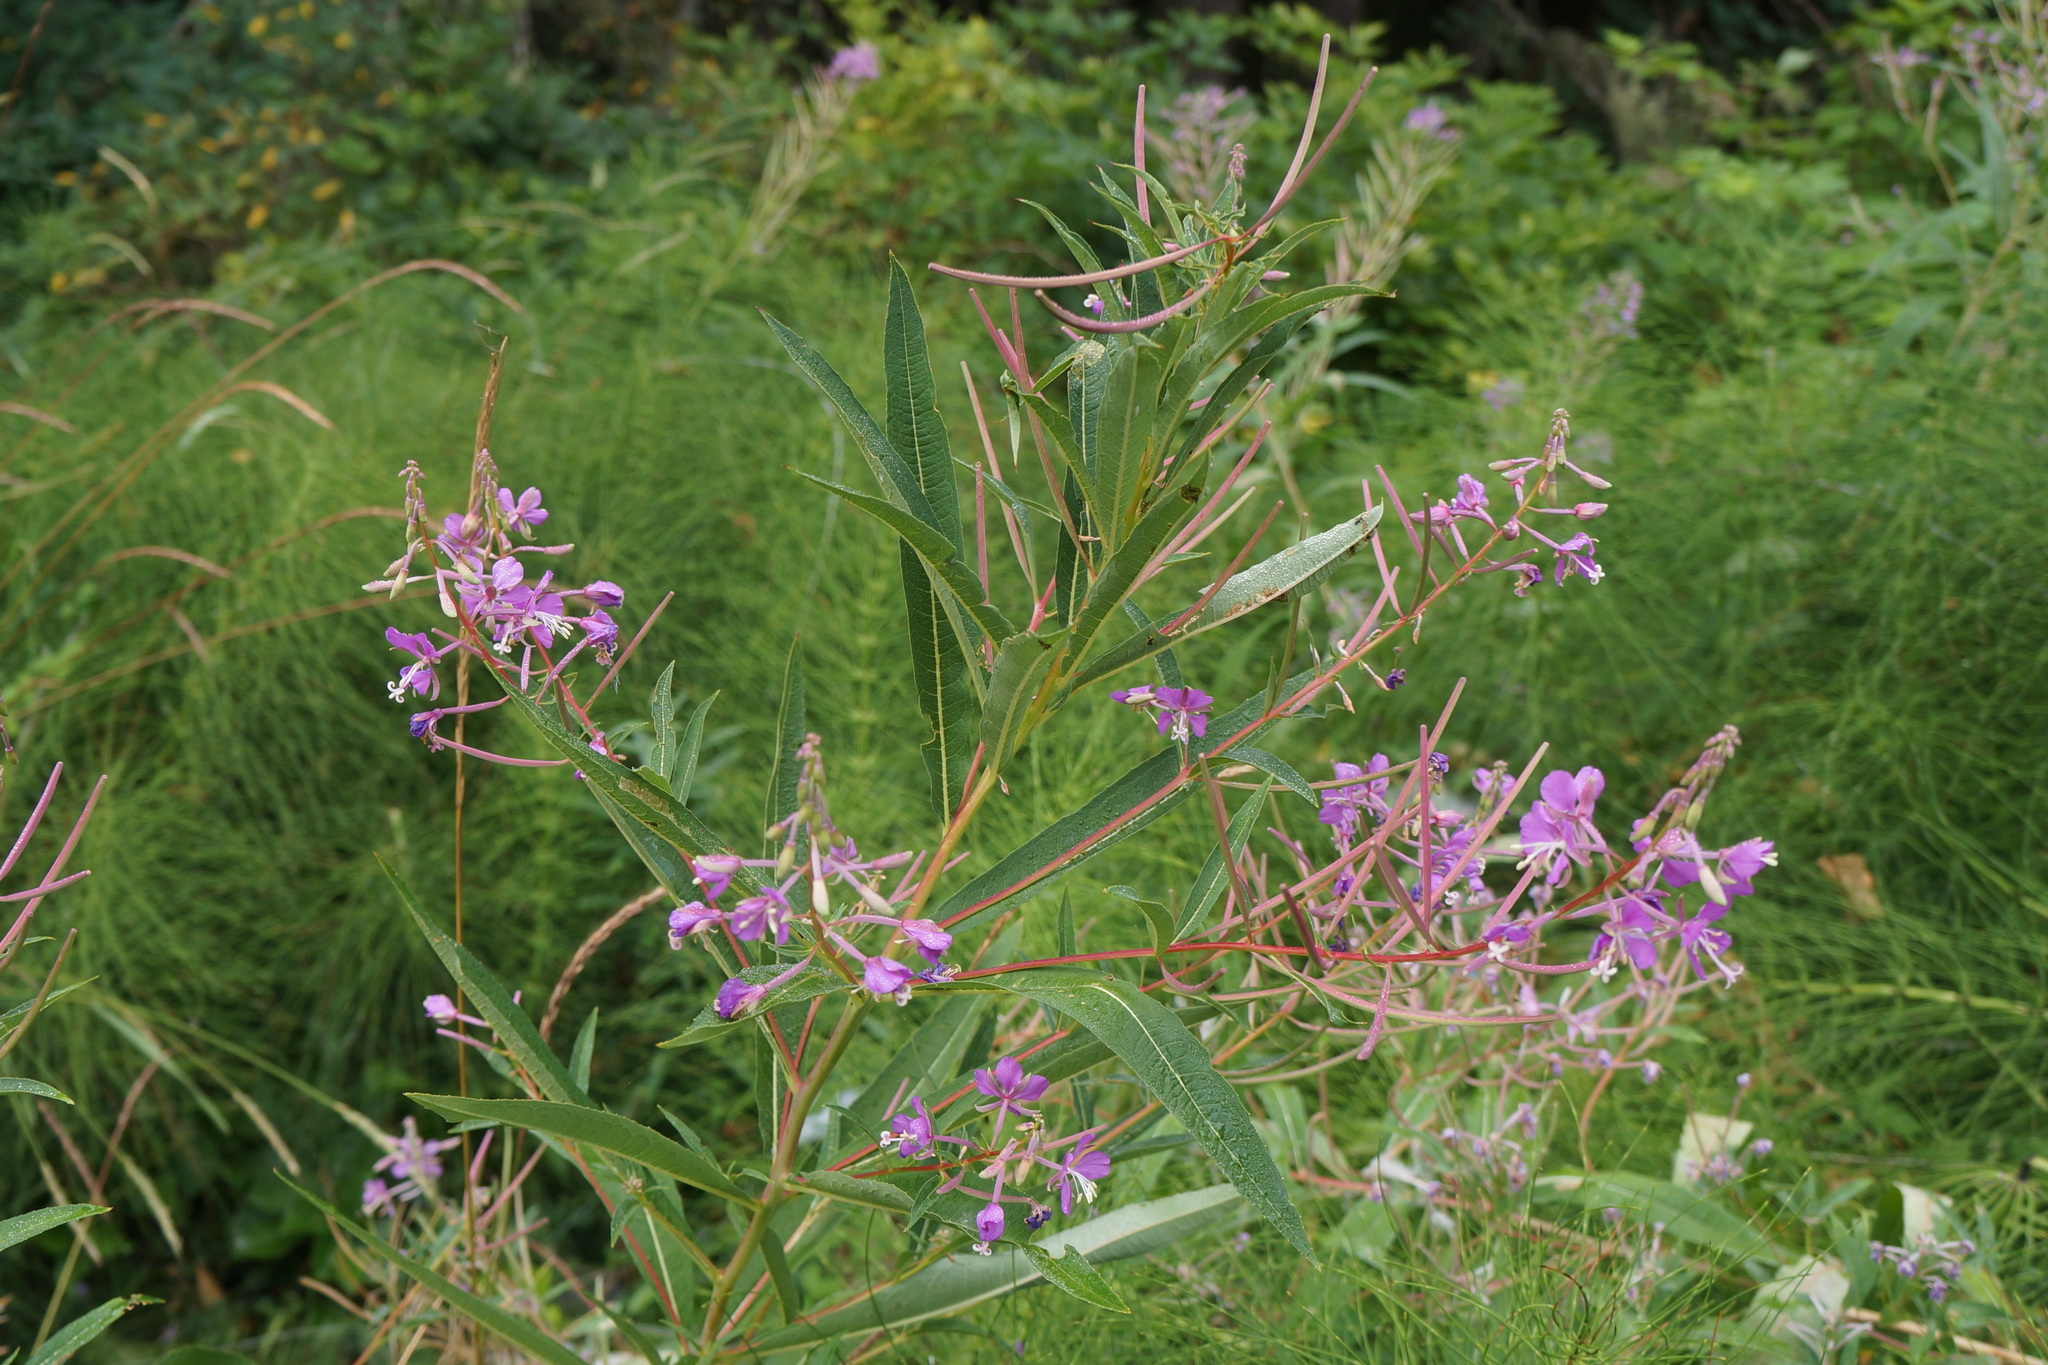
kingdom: Plantae
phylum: Tracheophyta
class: Magnoliopsida
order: Myrtales
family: Onagraceae
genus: Chamaenerion
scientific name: Chamaenerion angustifolium
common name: Fireweed
